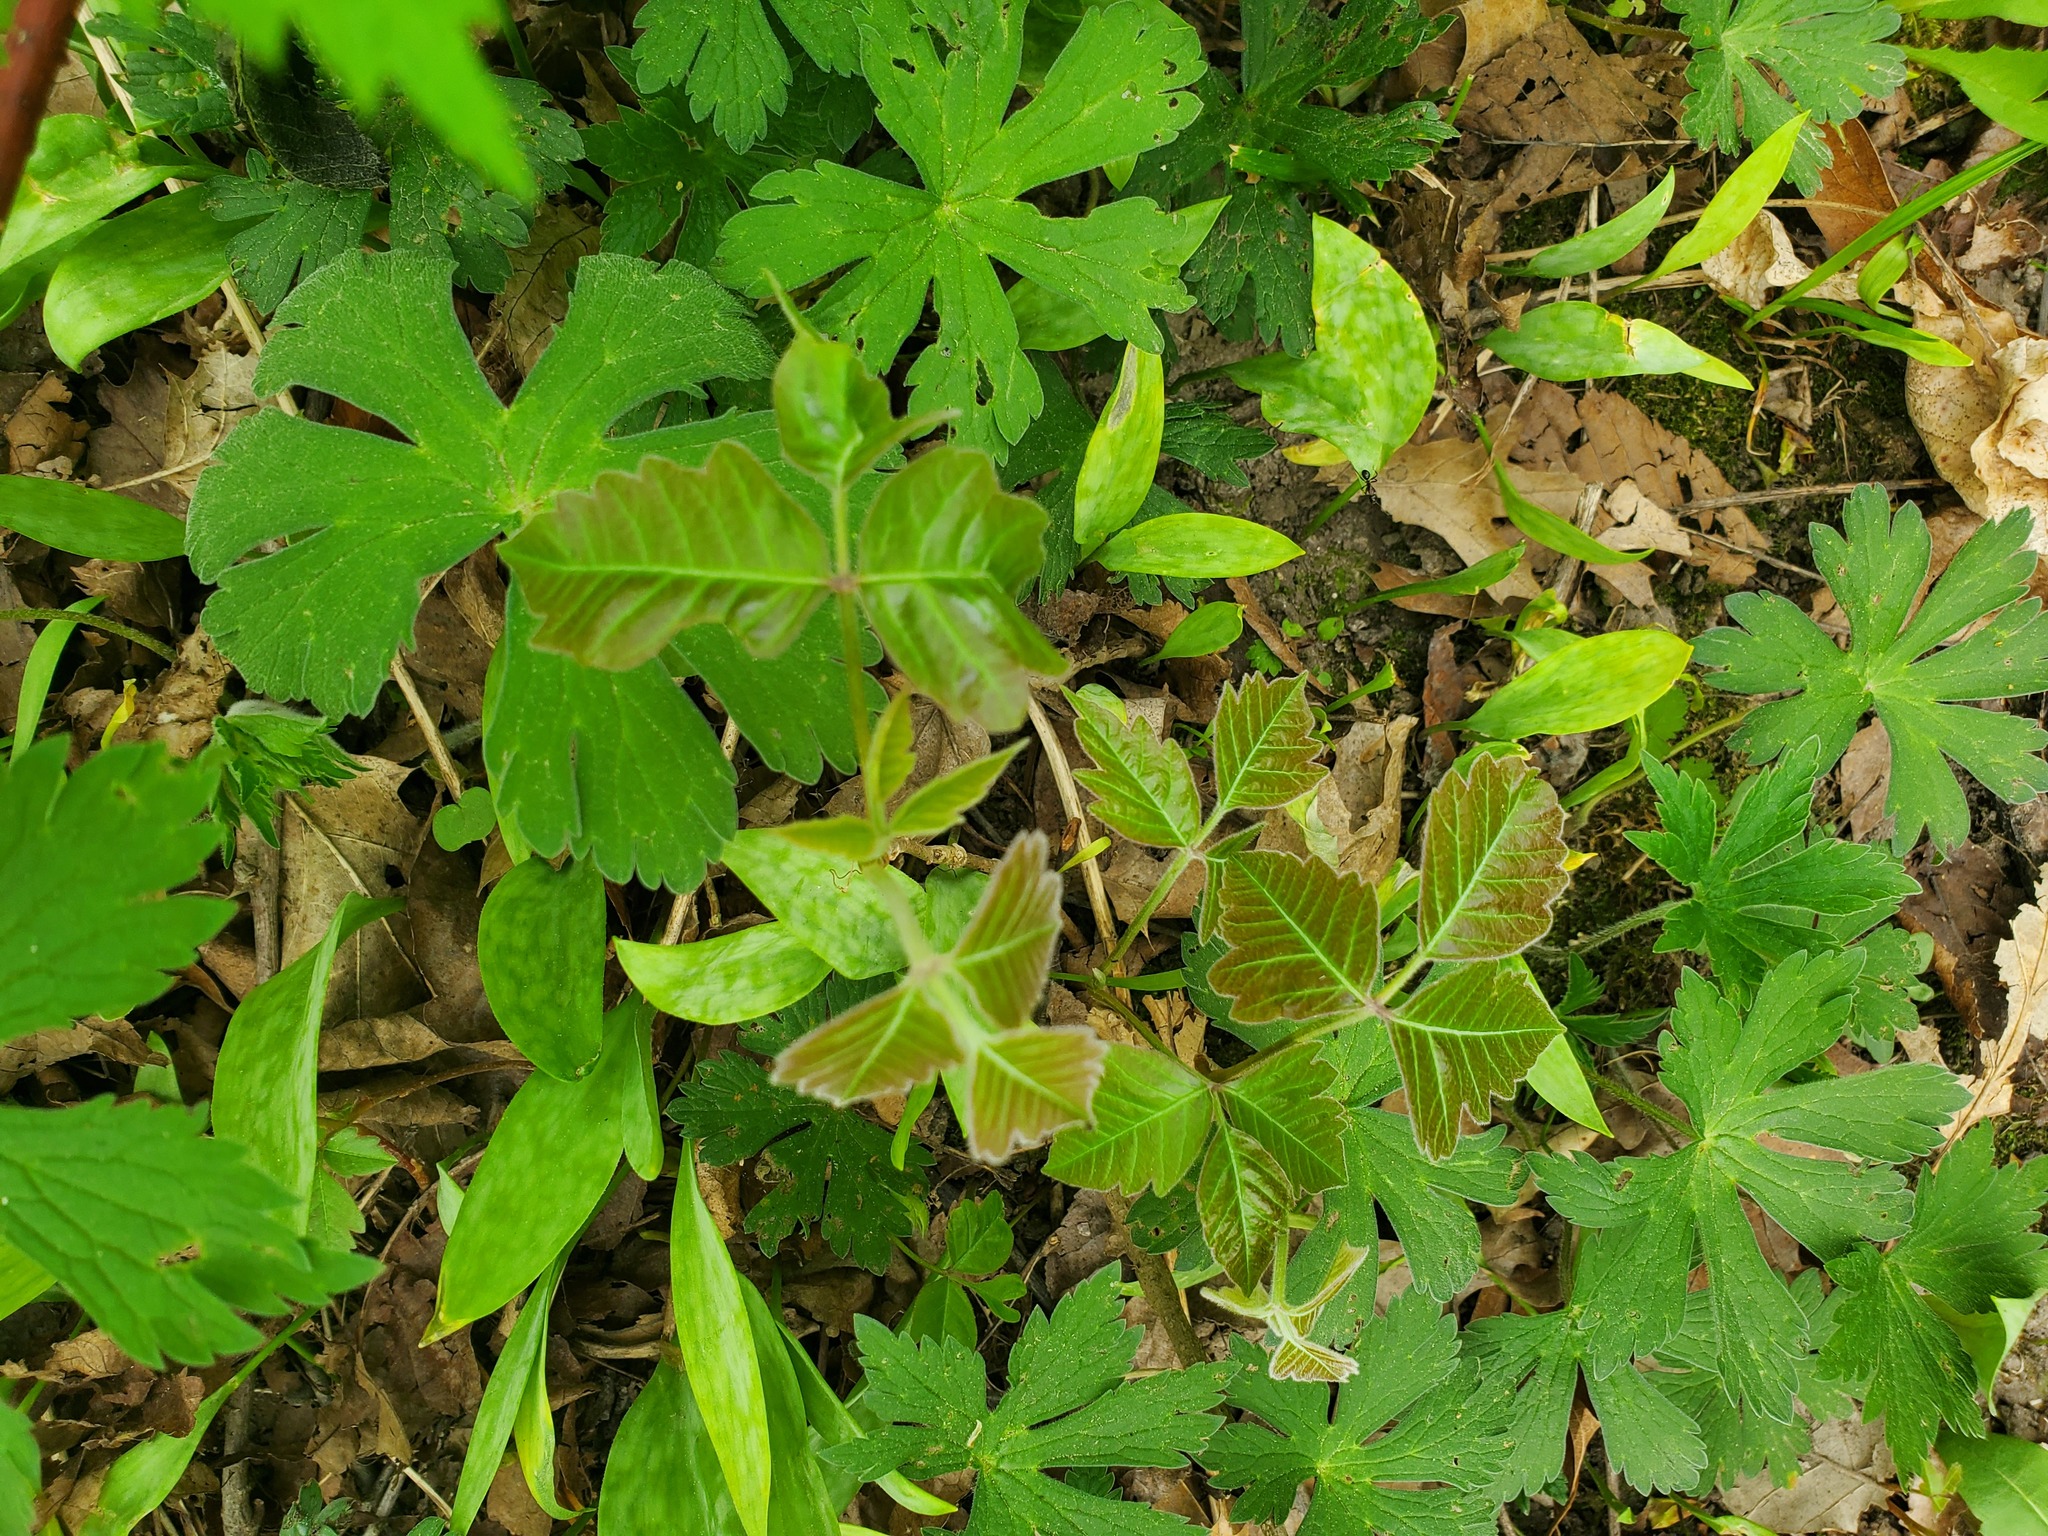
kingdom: Plantae
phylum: Tracheophyta
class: Magnoliopsida
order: Sapindales
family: Anacardiaceae
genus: Toxicodendron
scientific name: Toxicodendron radicans
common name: Poison ivy
